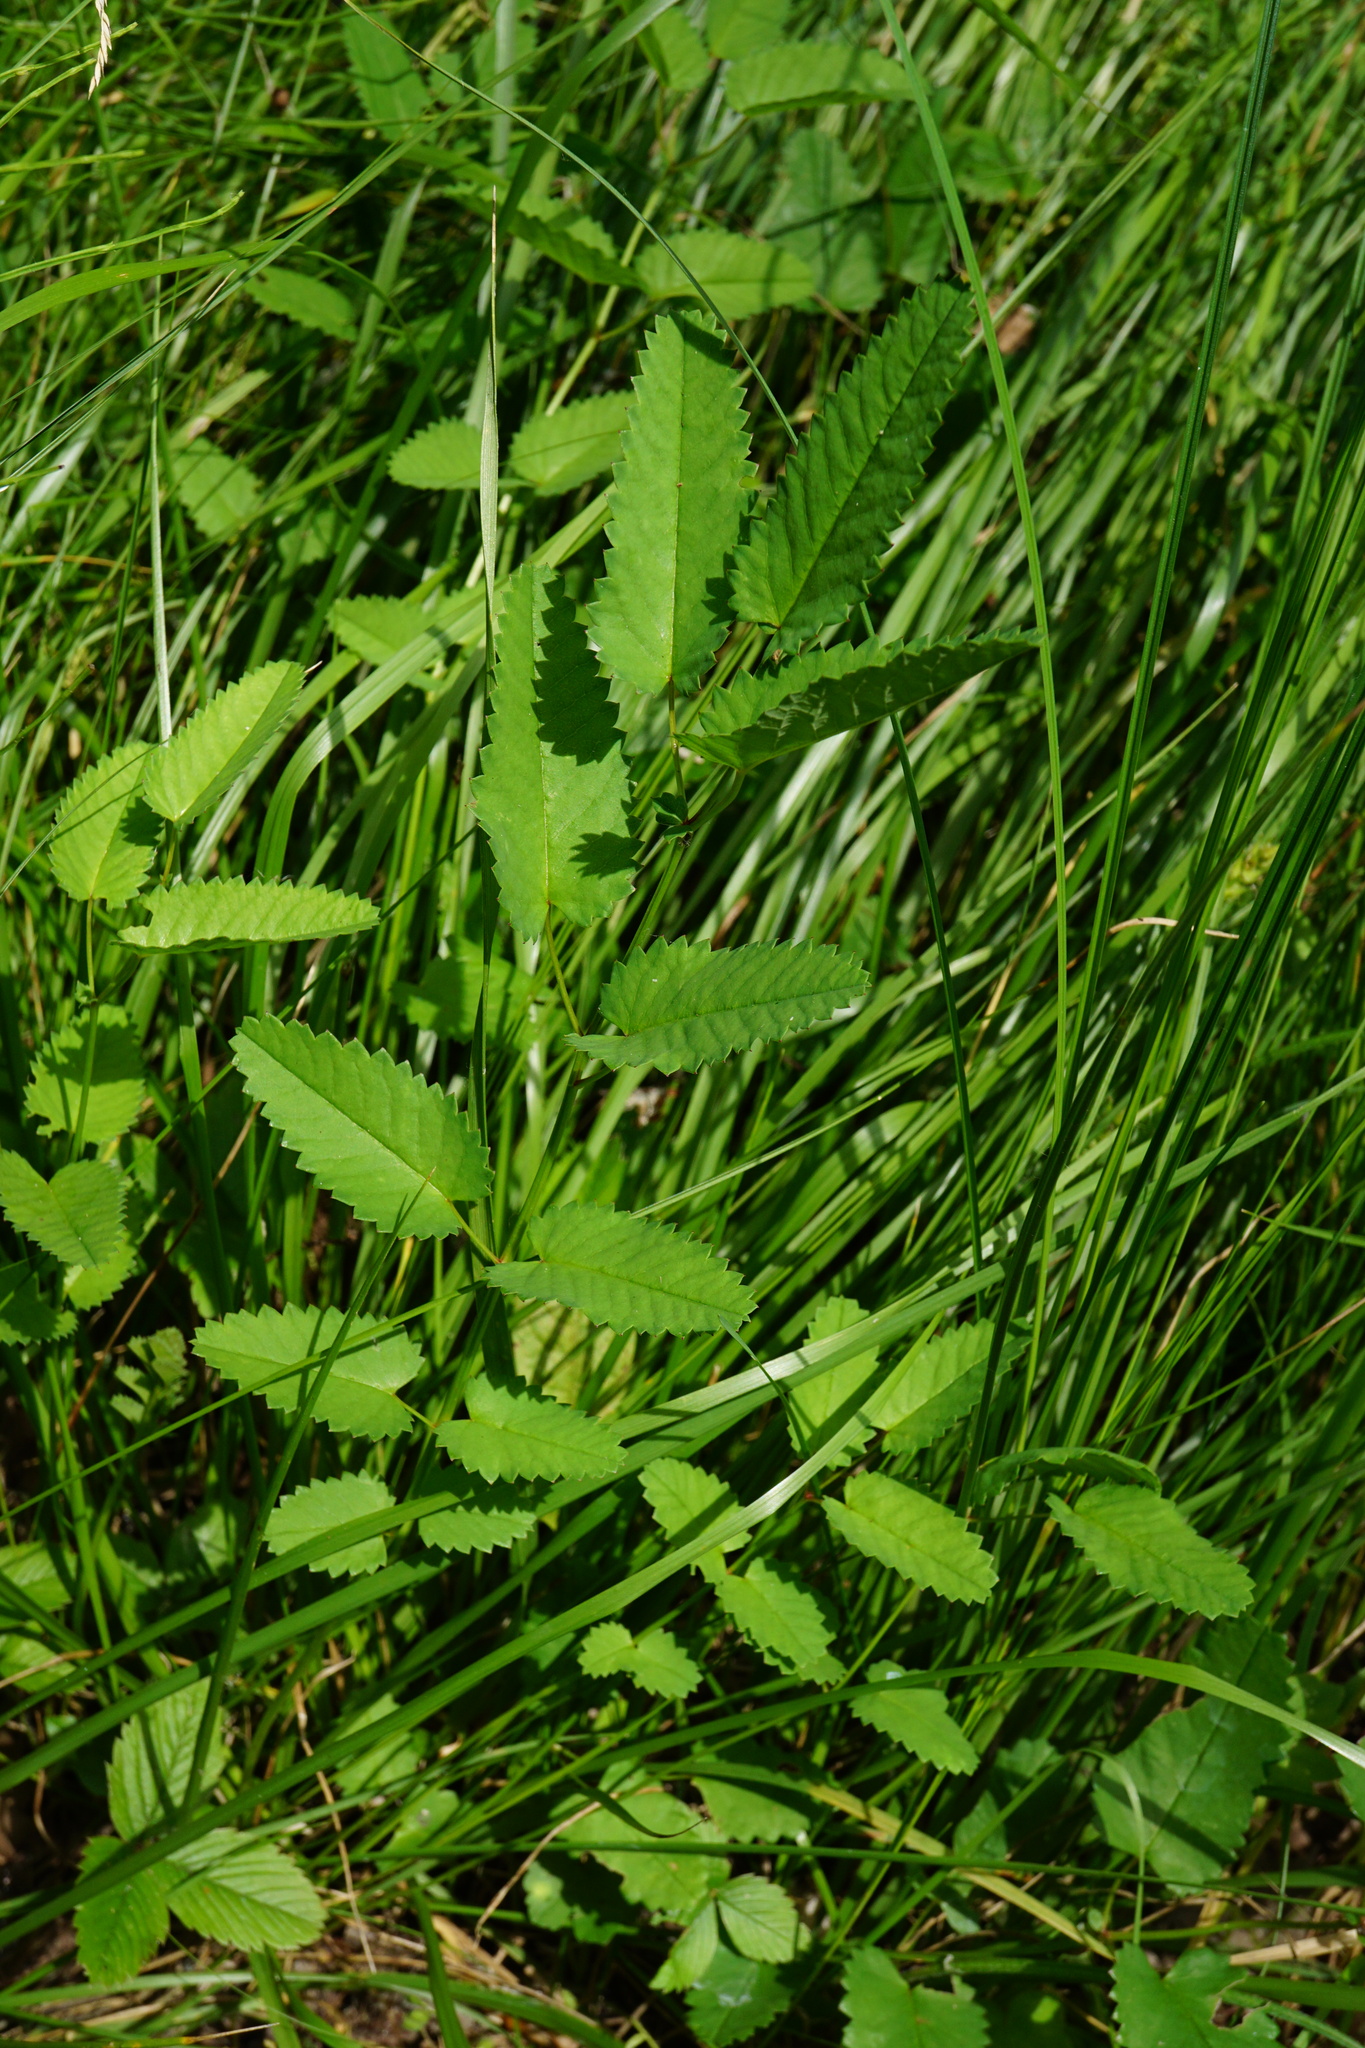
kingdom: Plantae
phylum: Tracheophyta
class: Magnoliopsida
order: Rosales
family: Rosaceae
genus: Sanguisorba
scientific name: Sanguisorba officinalis
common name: Great burnet
